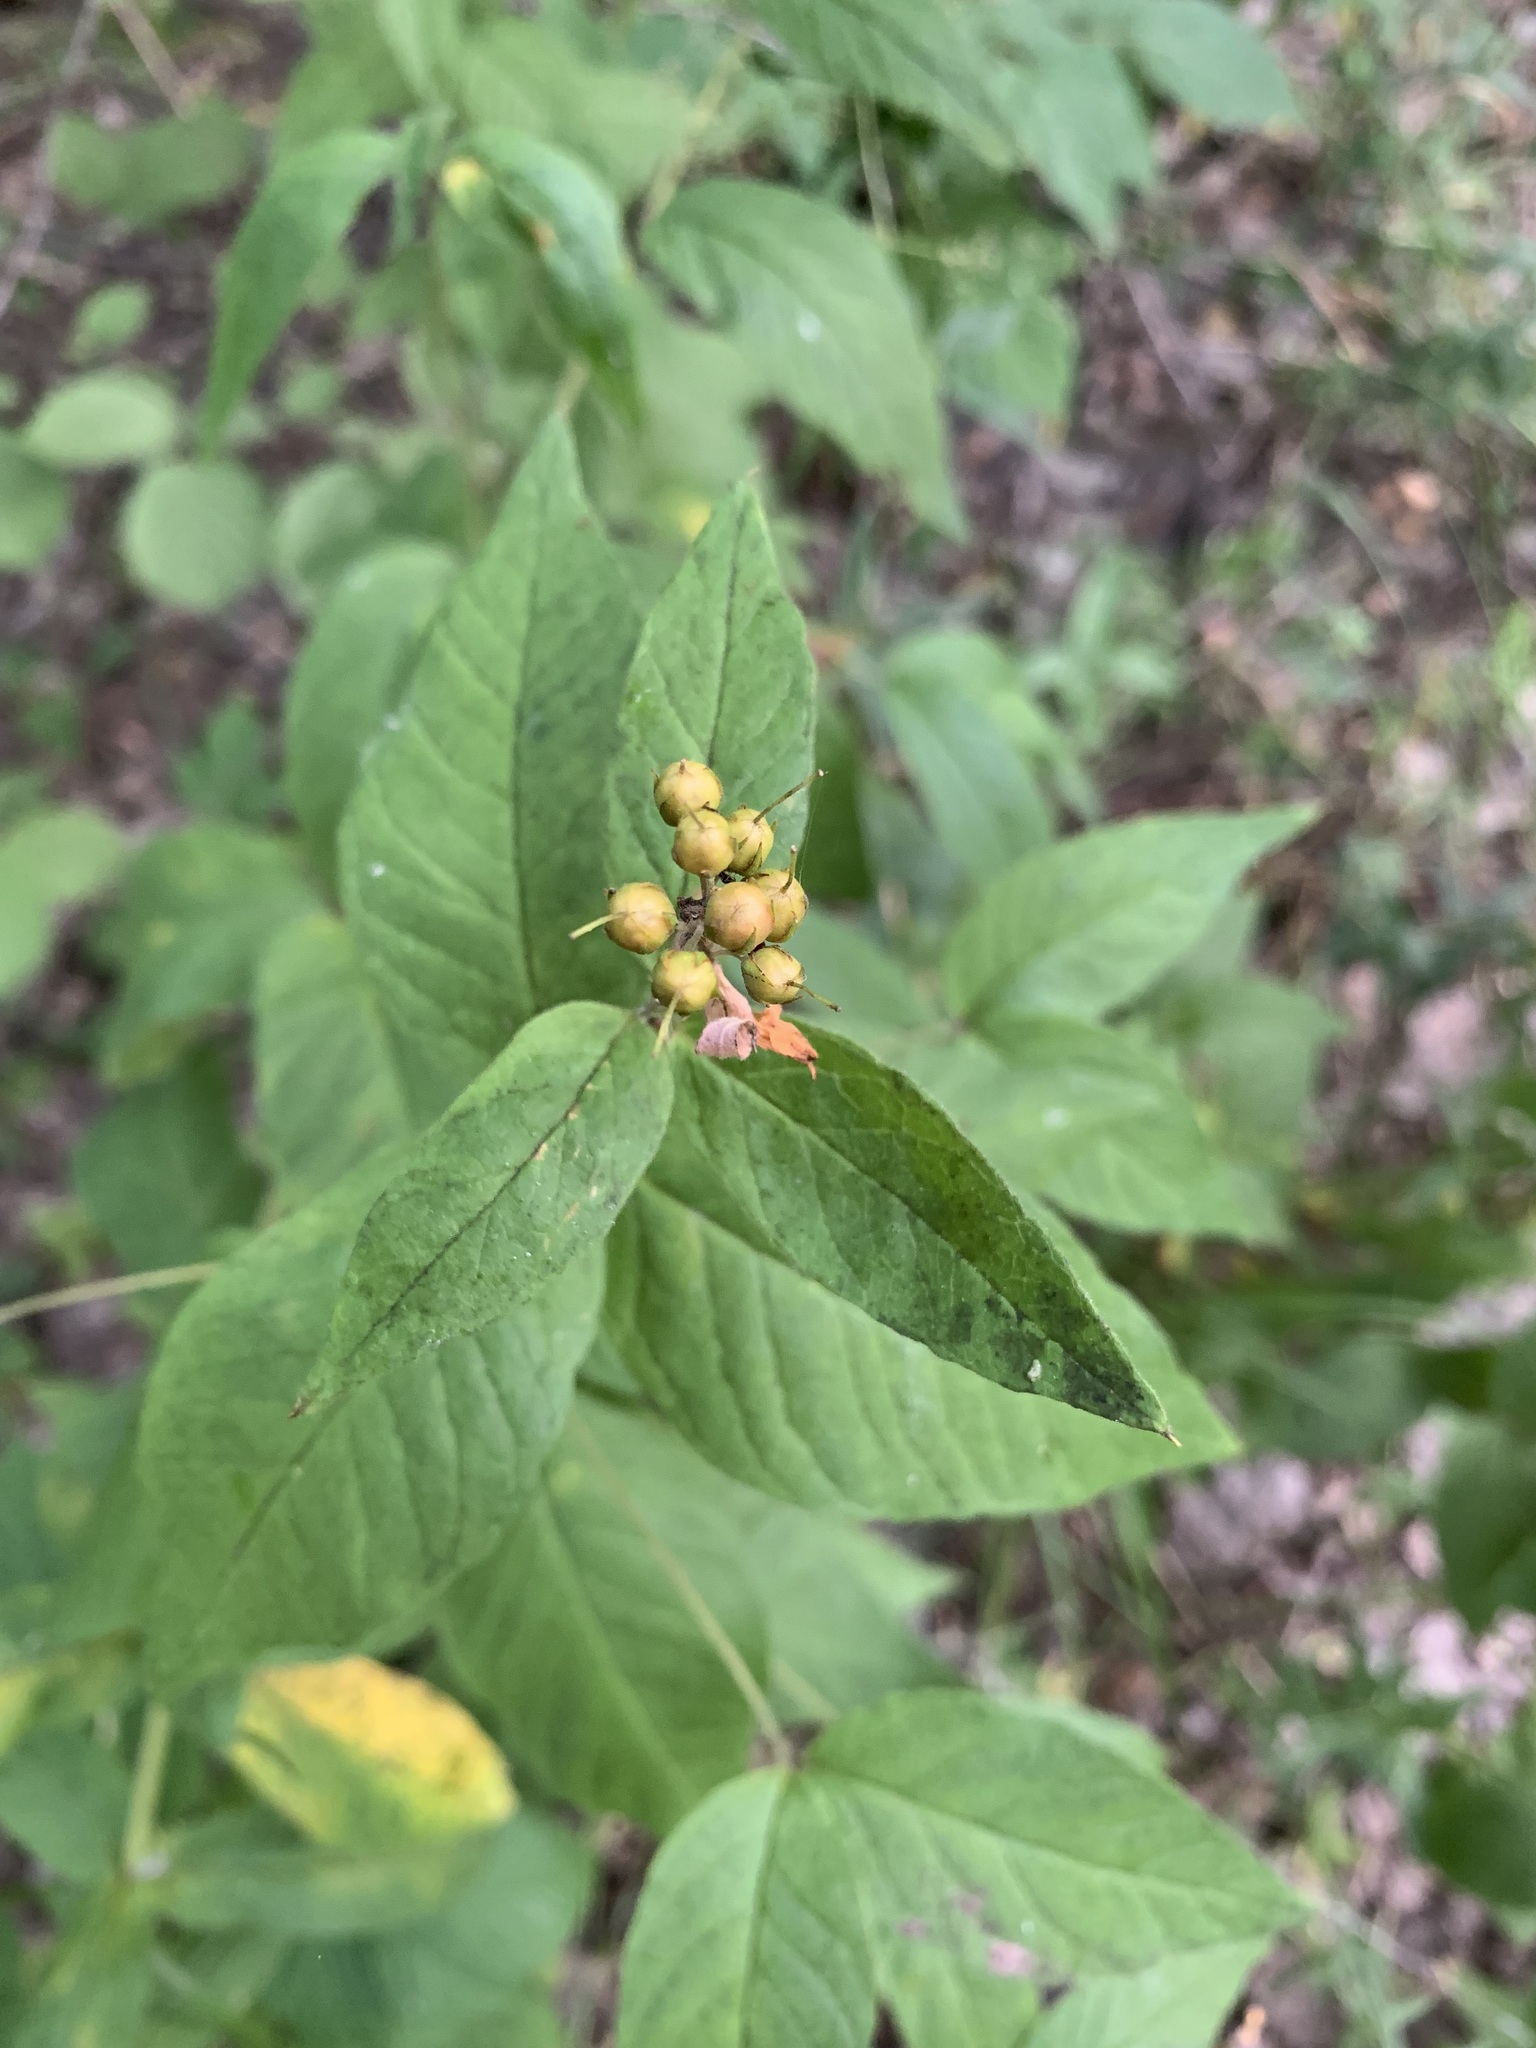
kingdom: Plantae
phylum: Tracheophyta
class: Magnoliopsida
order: Ericales
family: Primulaceae
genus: Lysimachia
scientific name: Lysimachia vulgaris
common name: Yellow loosestrife
